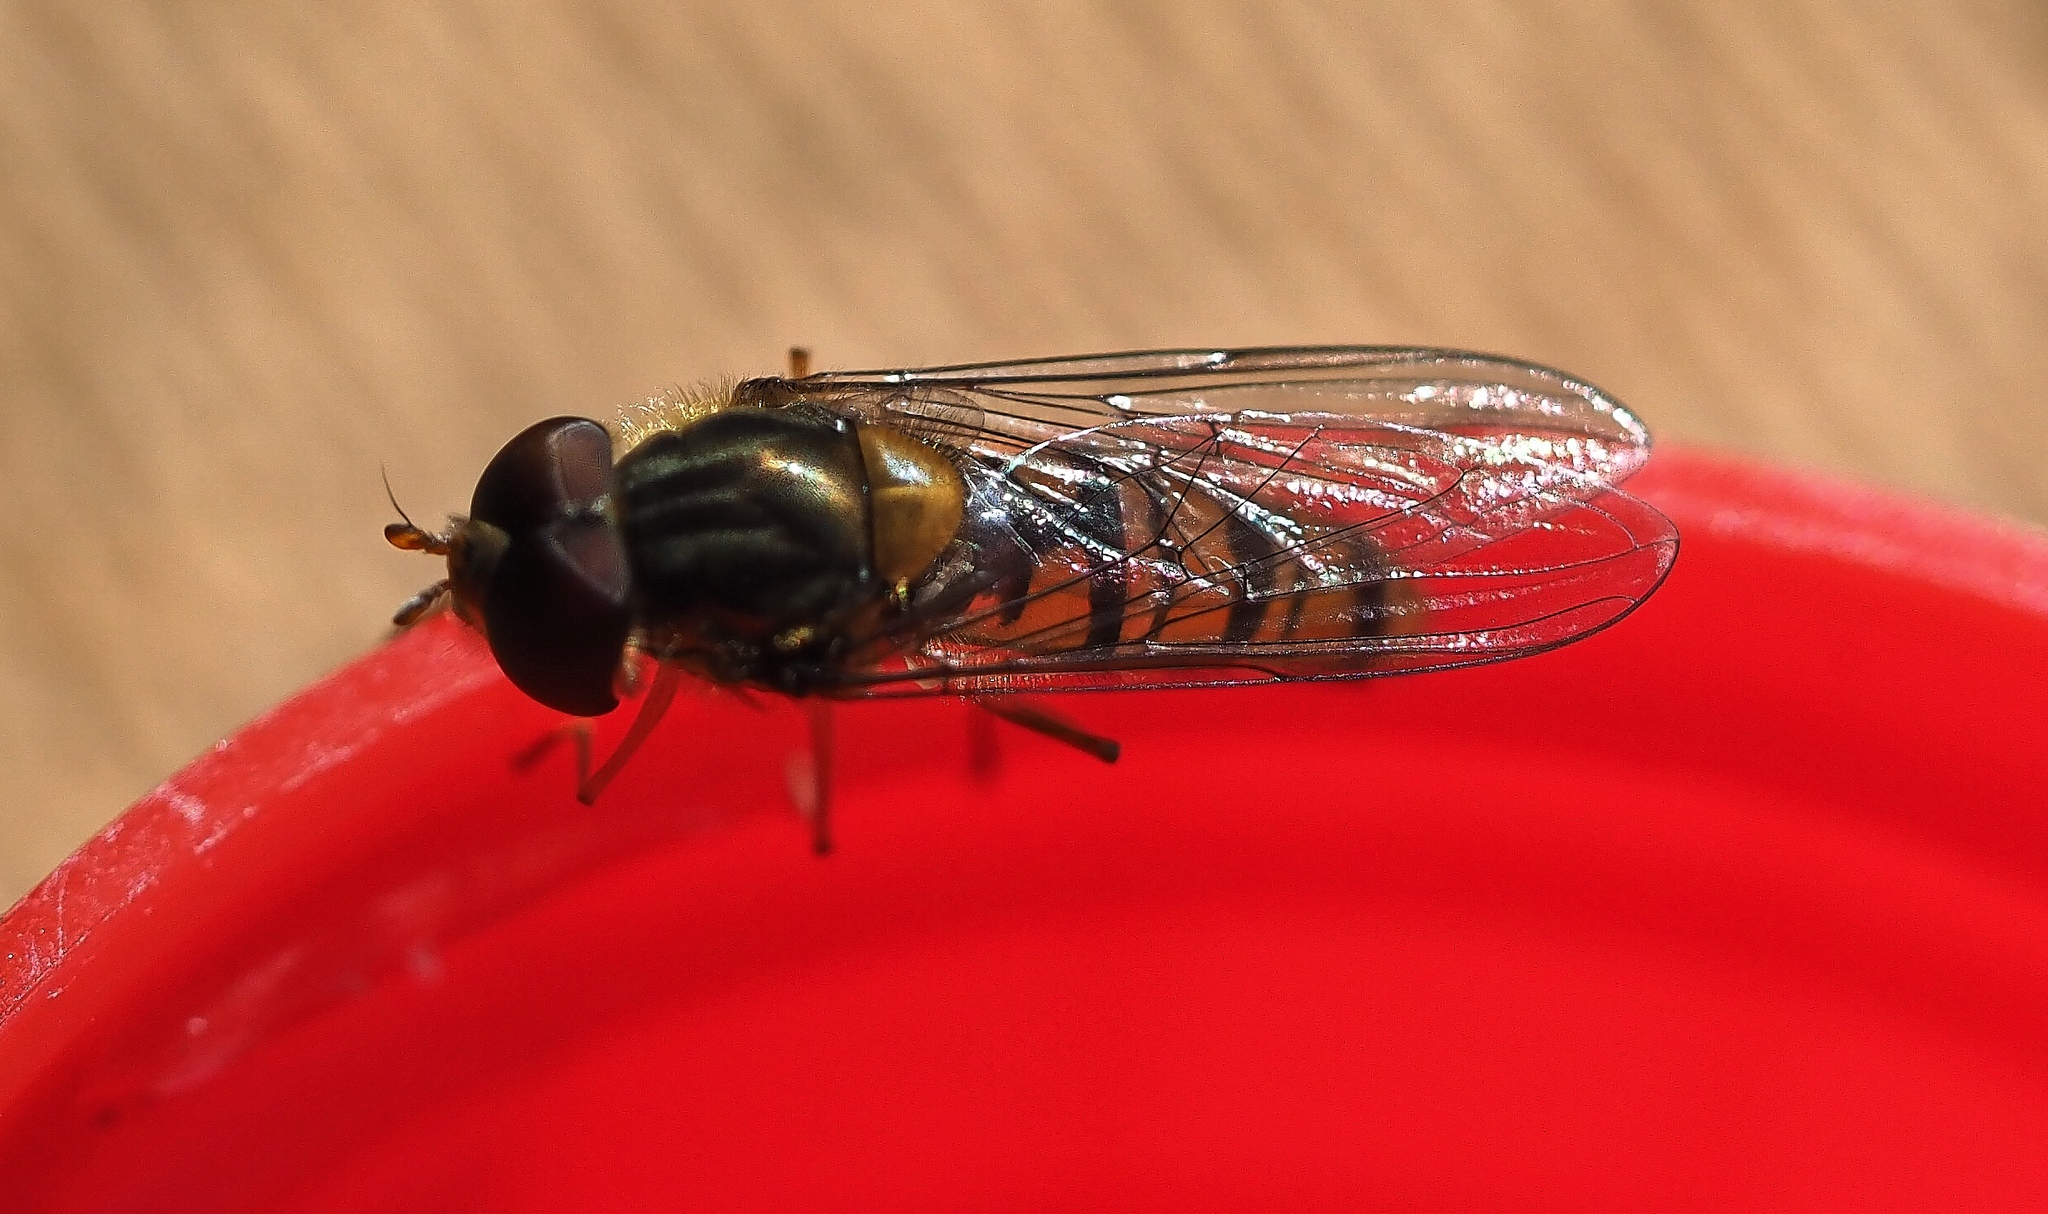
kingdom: Animalia
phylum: Arthropoda
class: Insecta
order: Diptera
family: Syrphidae
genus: Episyrphus
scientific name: Episyrphus balteatus
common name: Marmalade hoverfly
